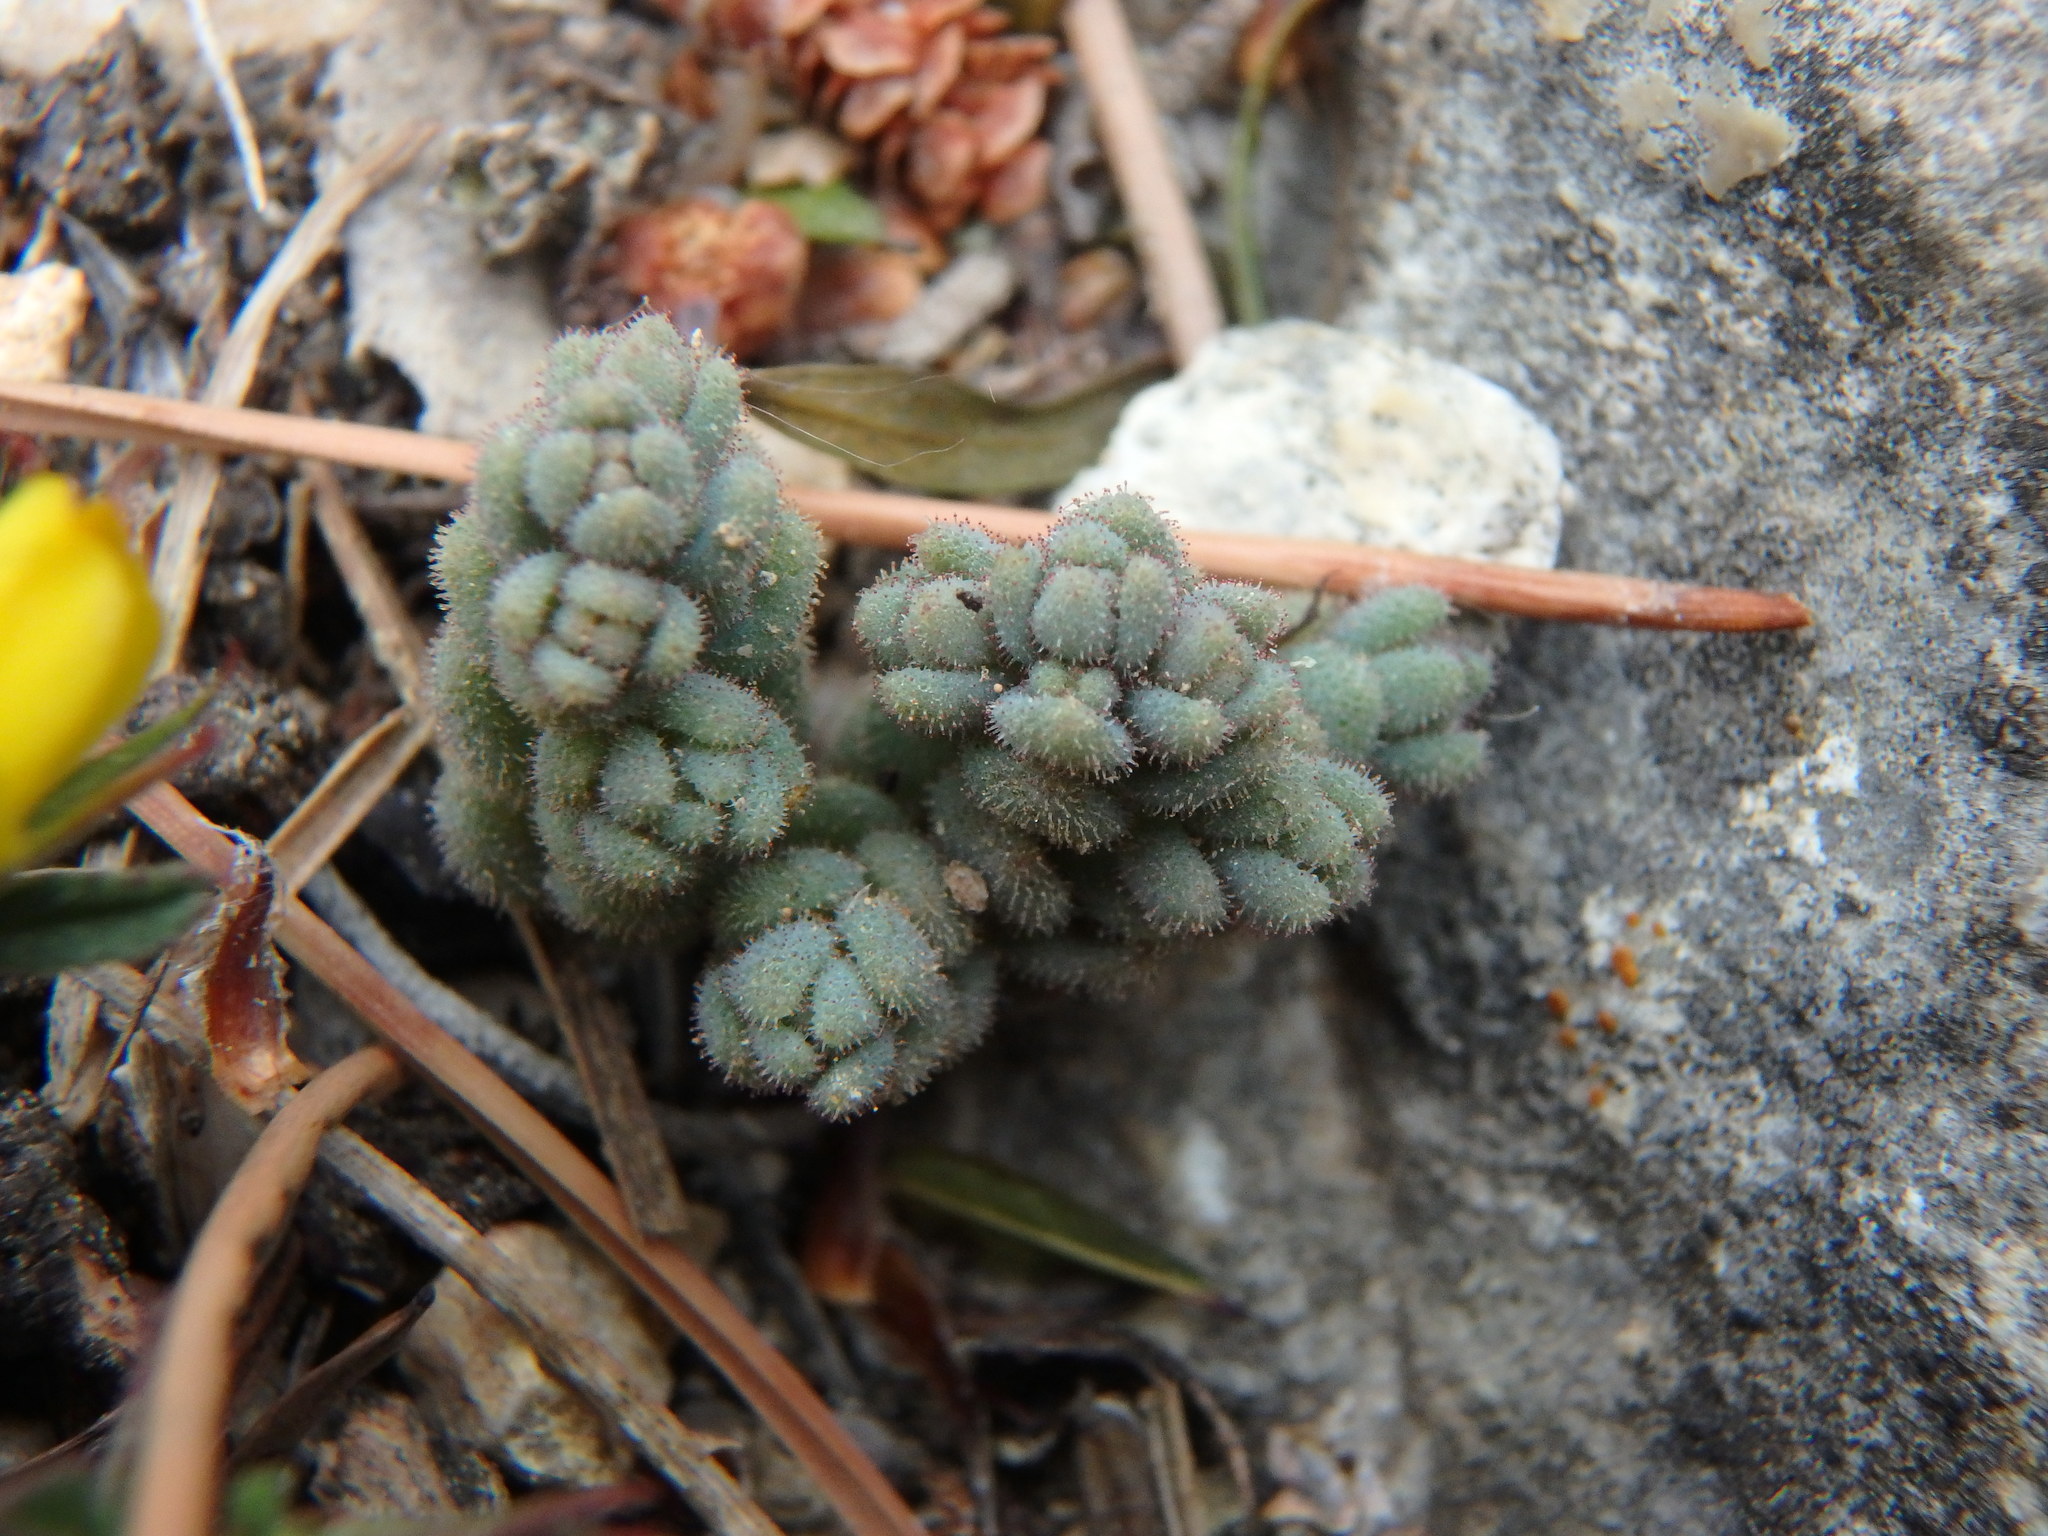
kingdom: Plantae
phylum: Tracheophyta
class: Magnoliopsida
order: Saxifragales
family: Crassulaceae
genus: Sedum
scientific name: Sedum dasyphyllum
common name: Thick-leaf stonecrop
